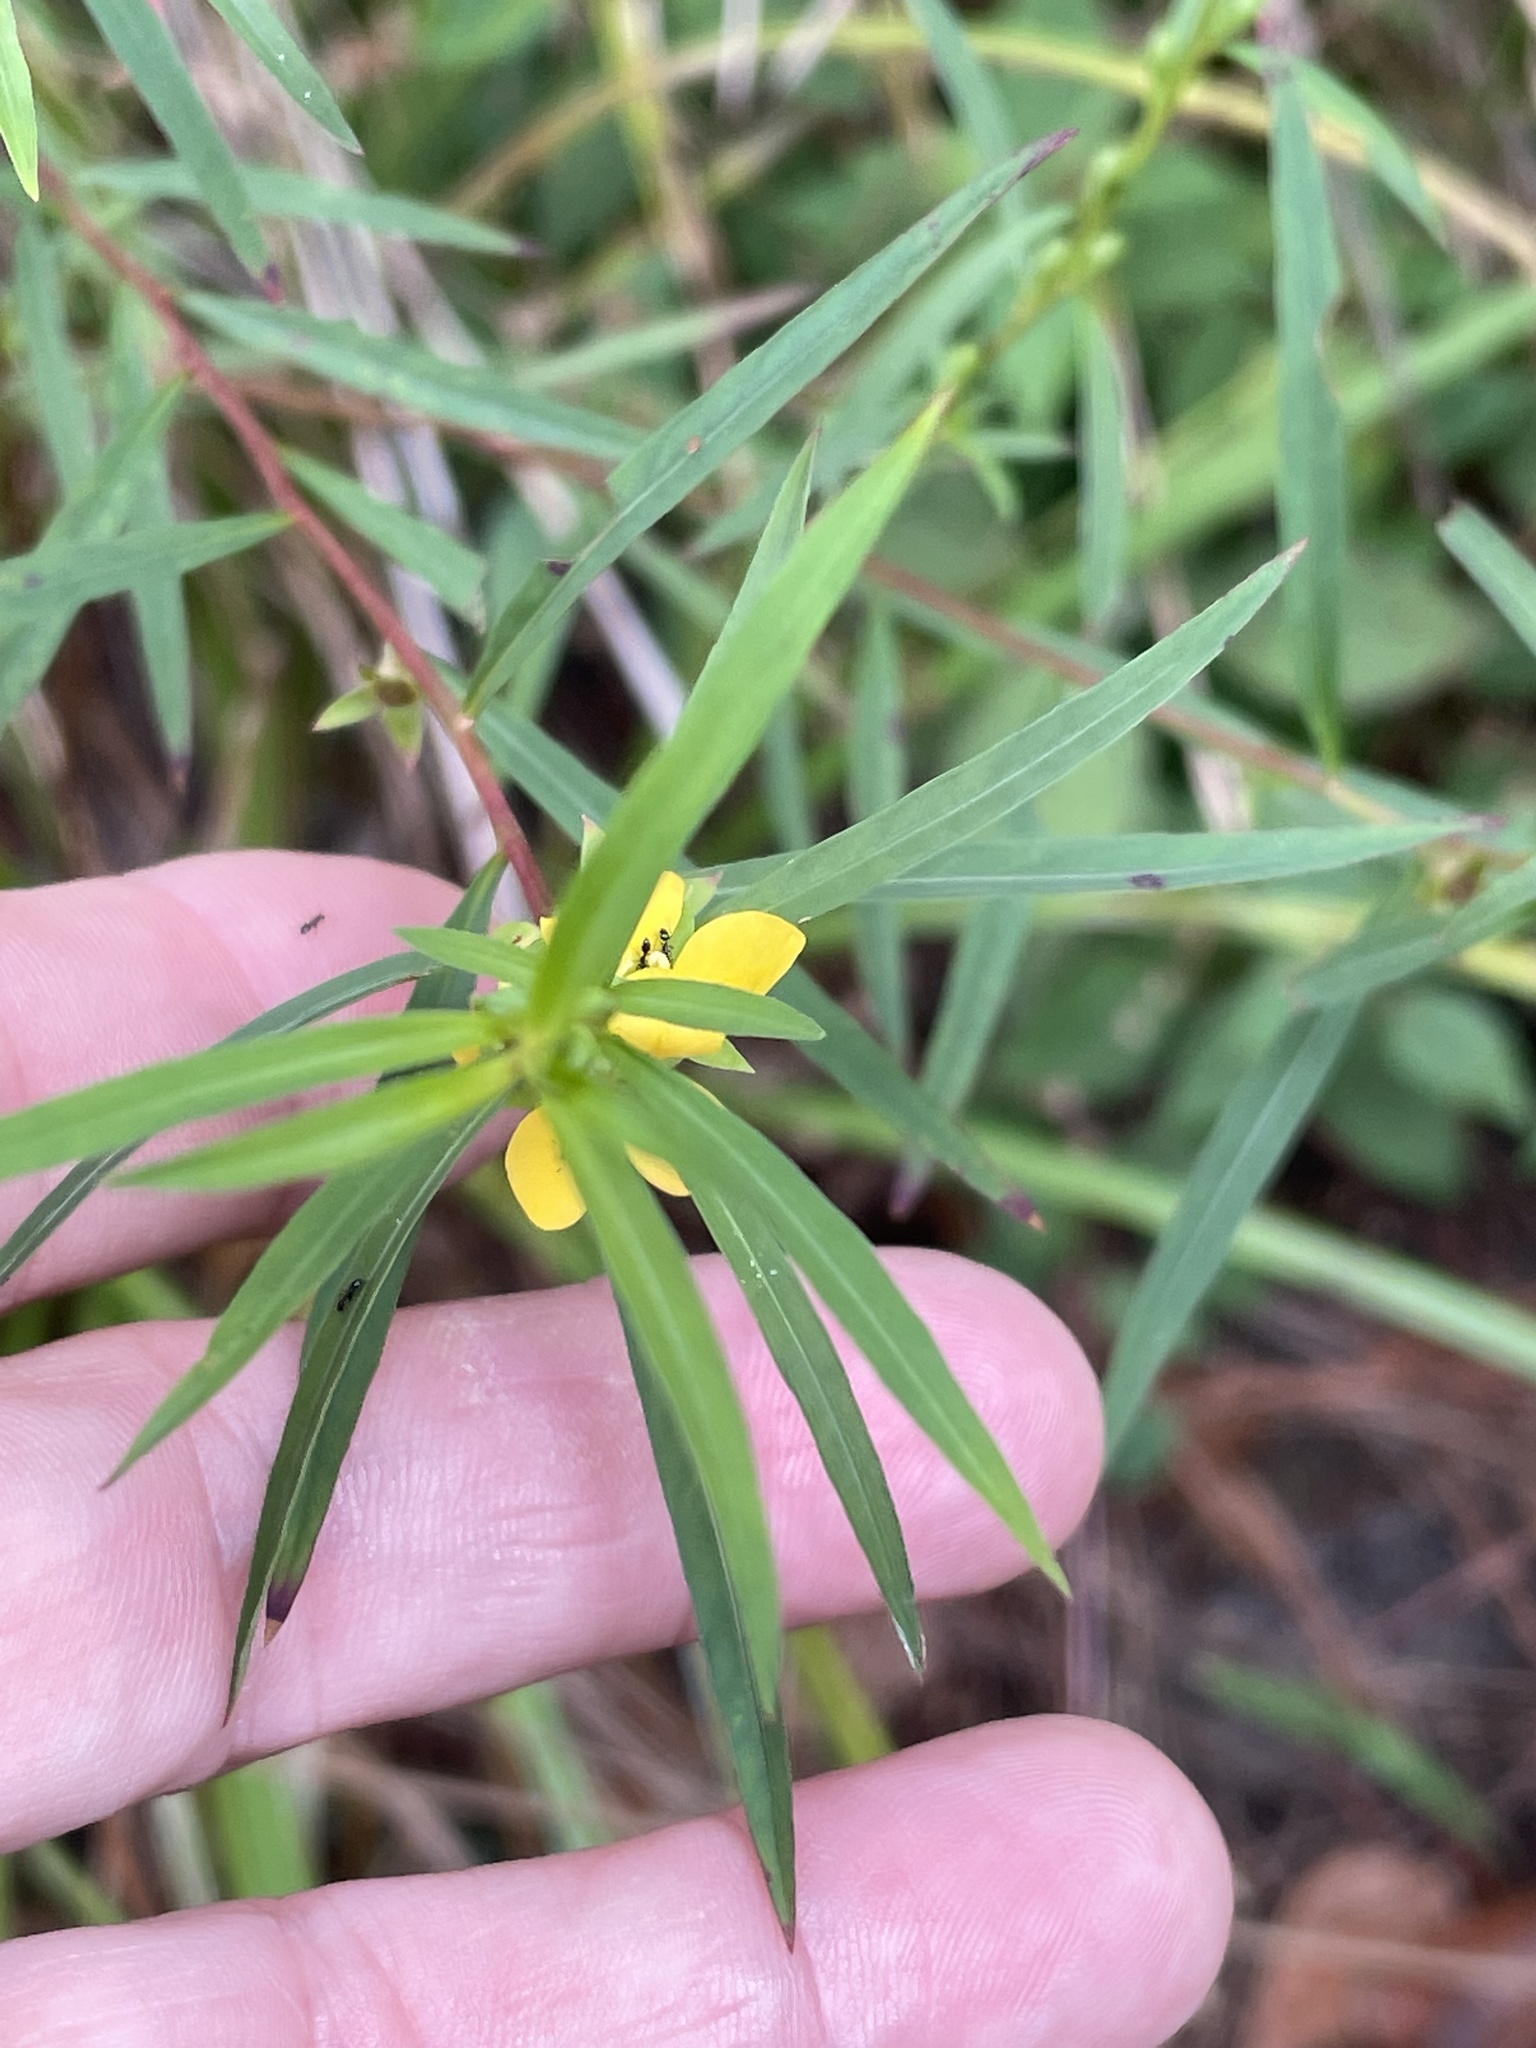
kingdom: Plantae
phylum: Tracheophyta
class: Magnoliopsida
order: Myrtales
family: Onagraceae
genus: Ludwigia
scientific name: Ludwigia linearis
